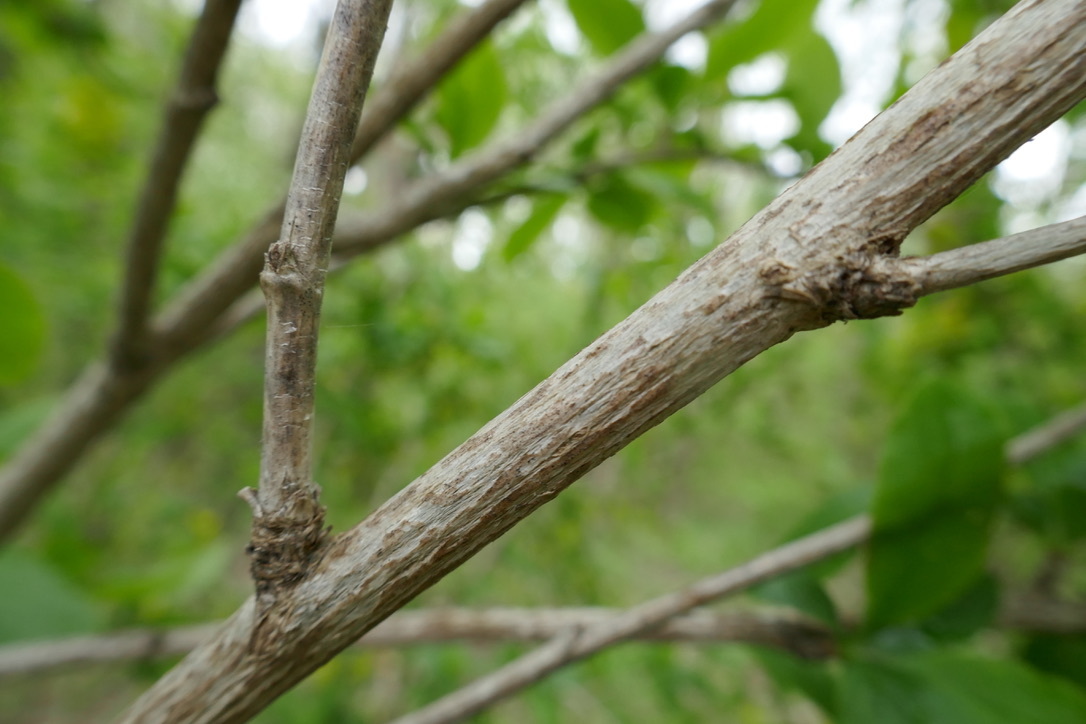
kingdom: Plantae
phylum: Tracheophyta
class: Magnoliopsida
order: Ranunculales
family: Berberidaceae
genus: Berberis
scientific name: Berberis vulgaris
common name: Barberry
